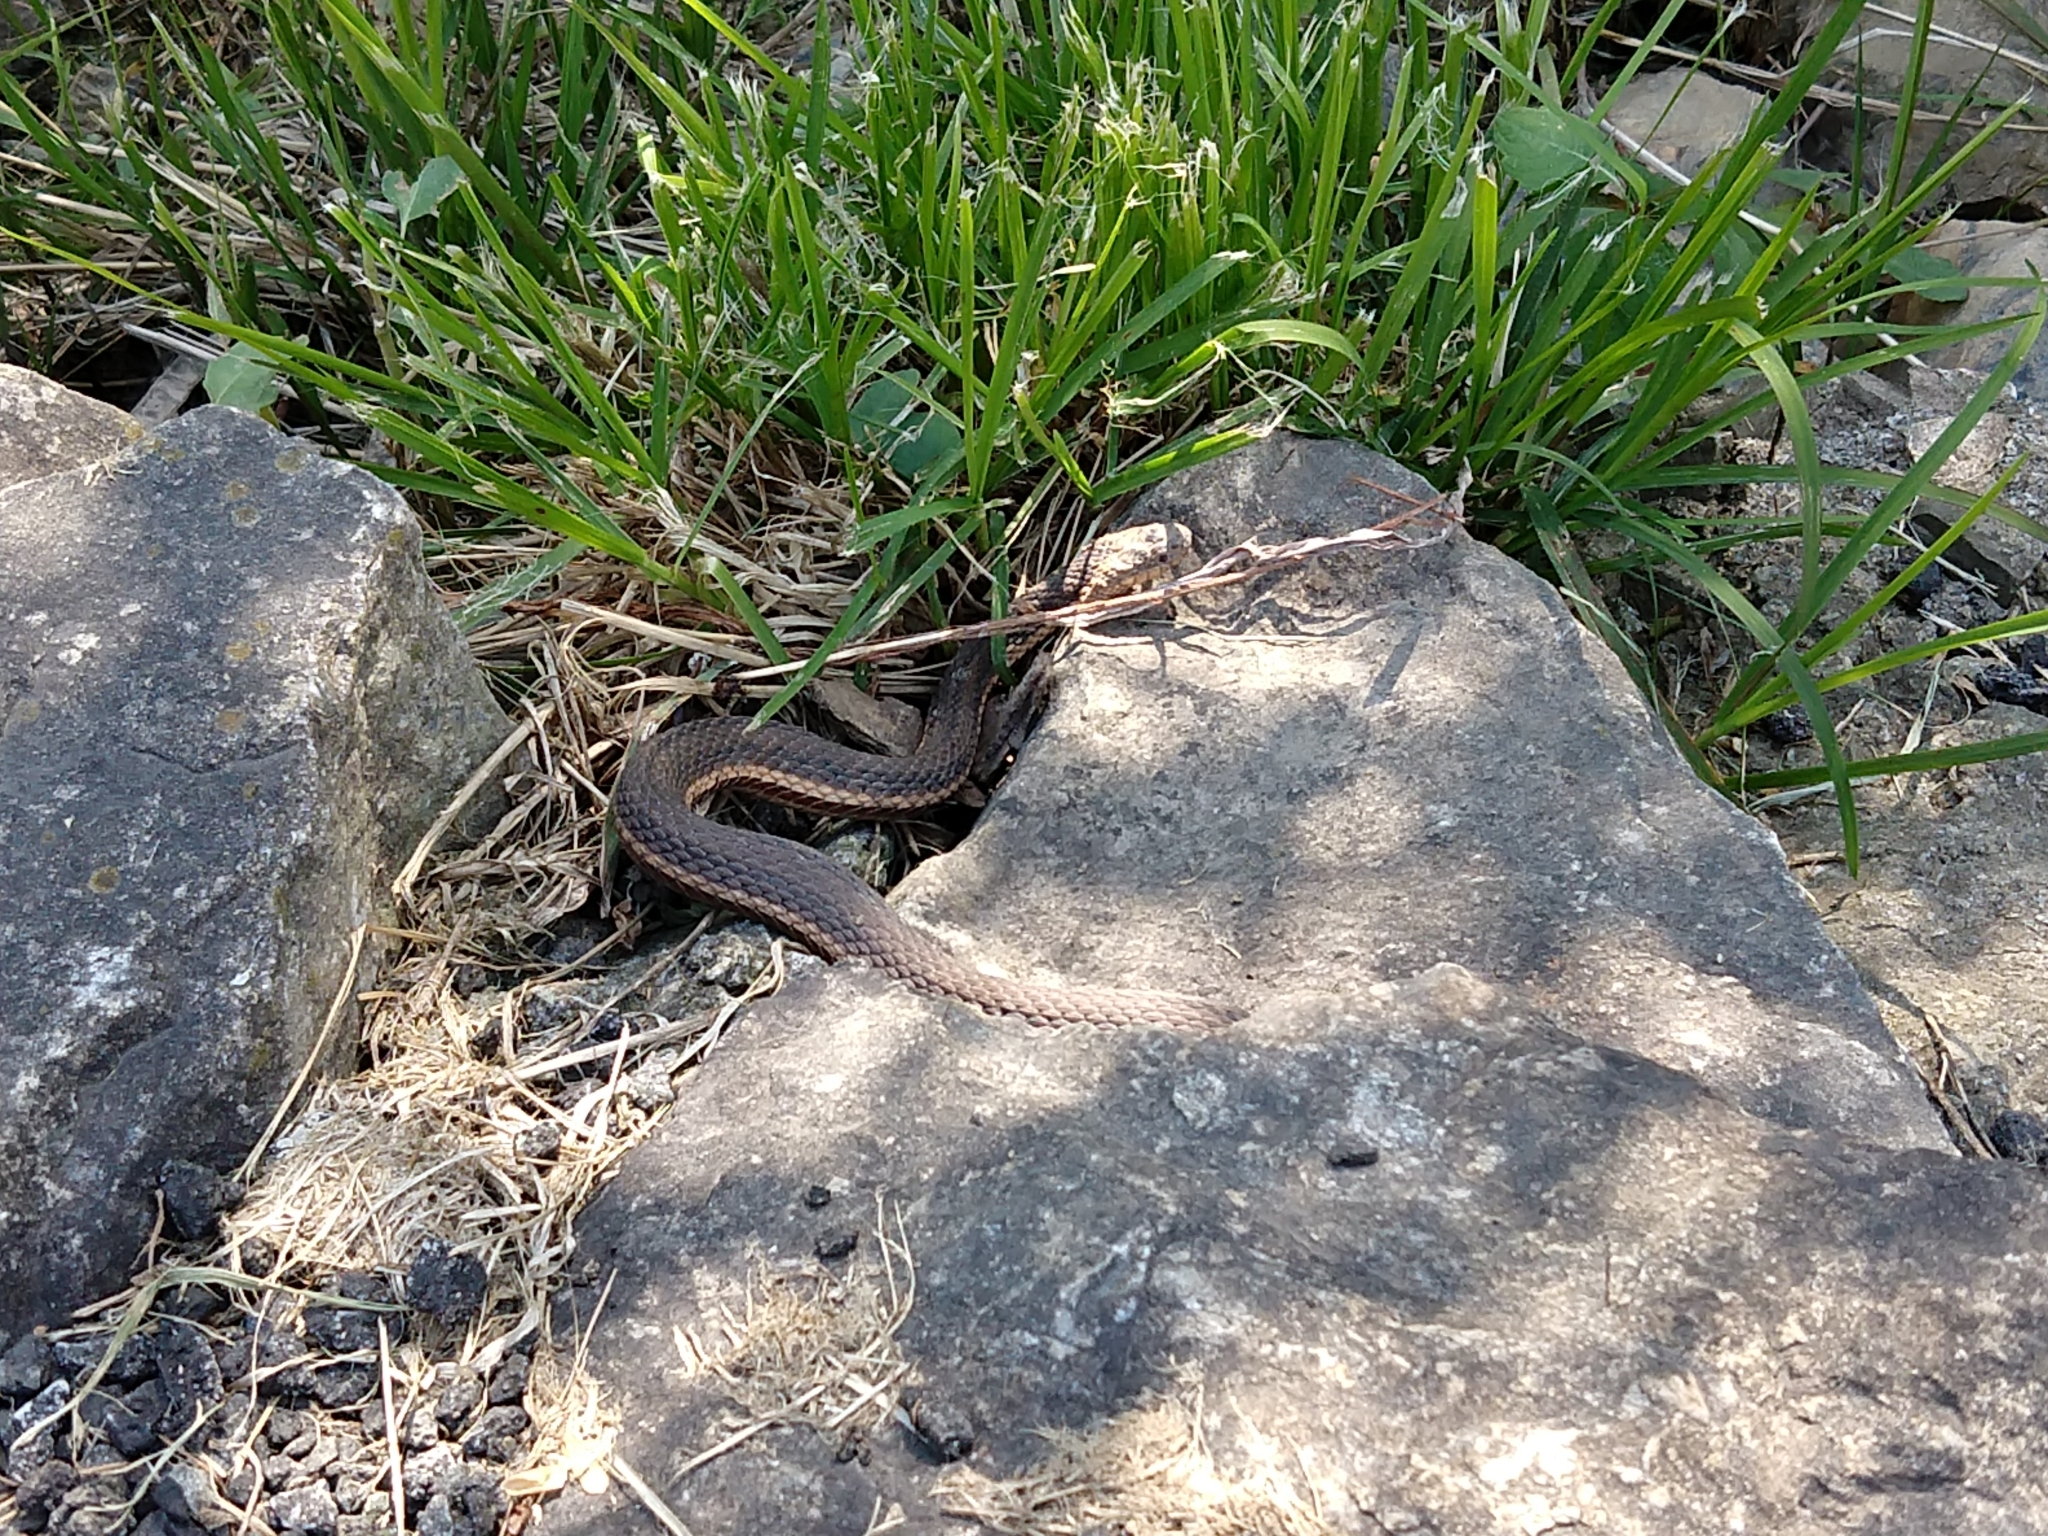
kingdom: Animalia
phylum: Chordata
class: Squamata
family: Colubridae
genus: Regina
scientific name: Regina septemvittata
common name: Queen snake
